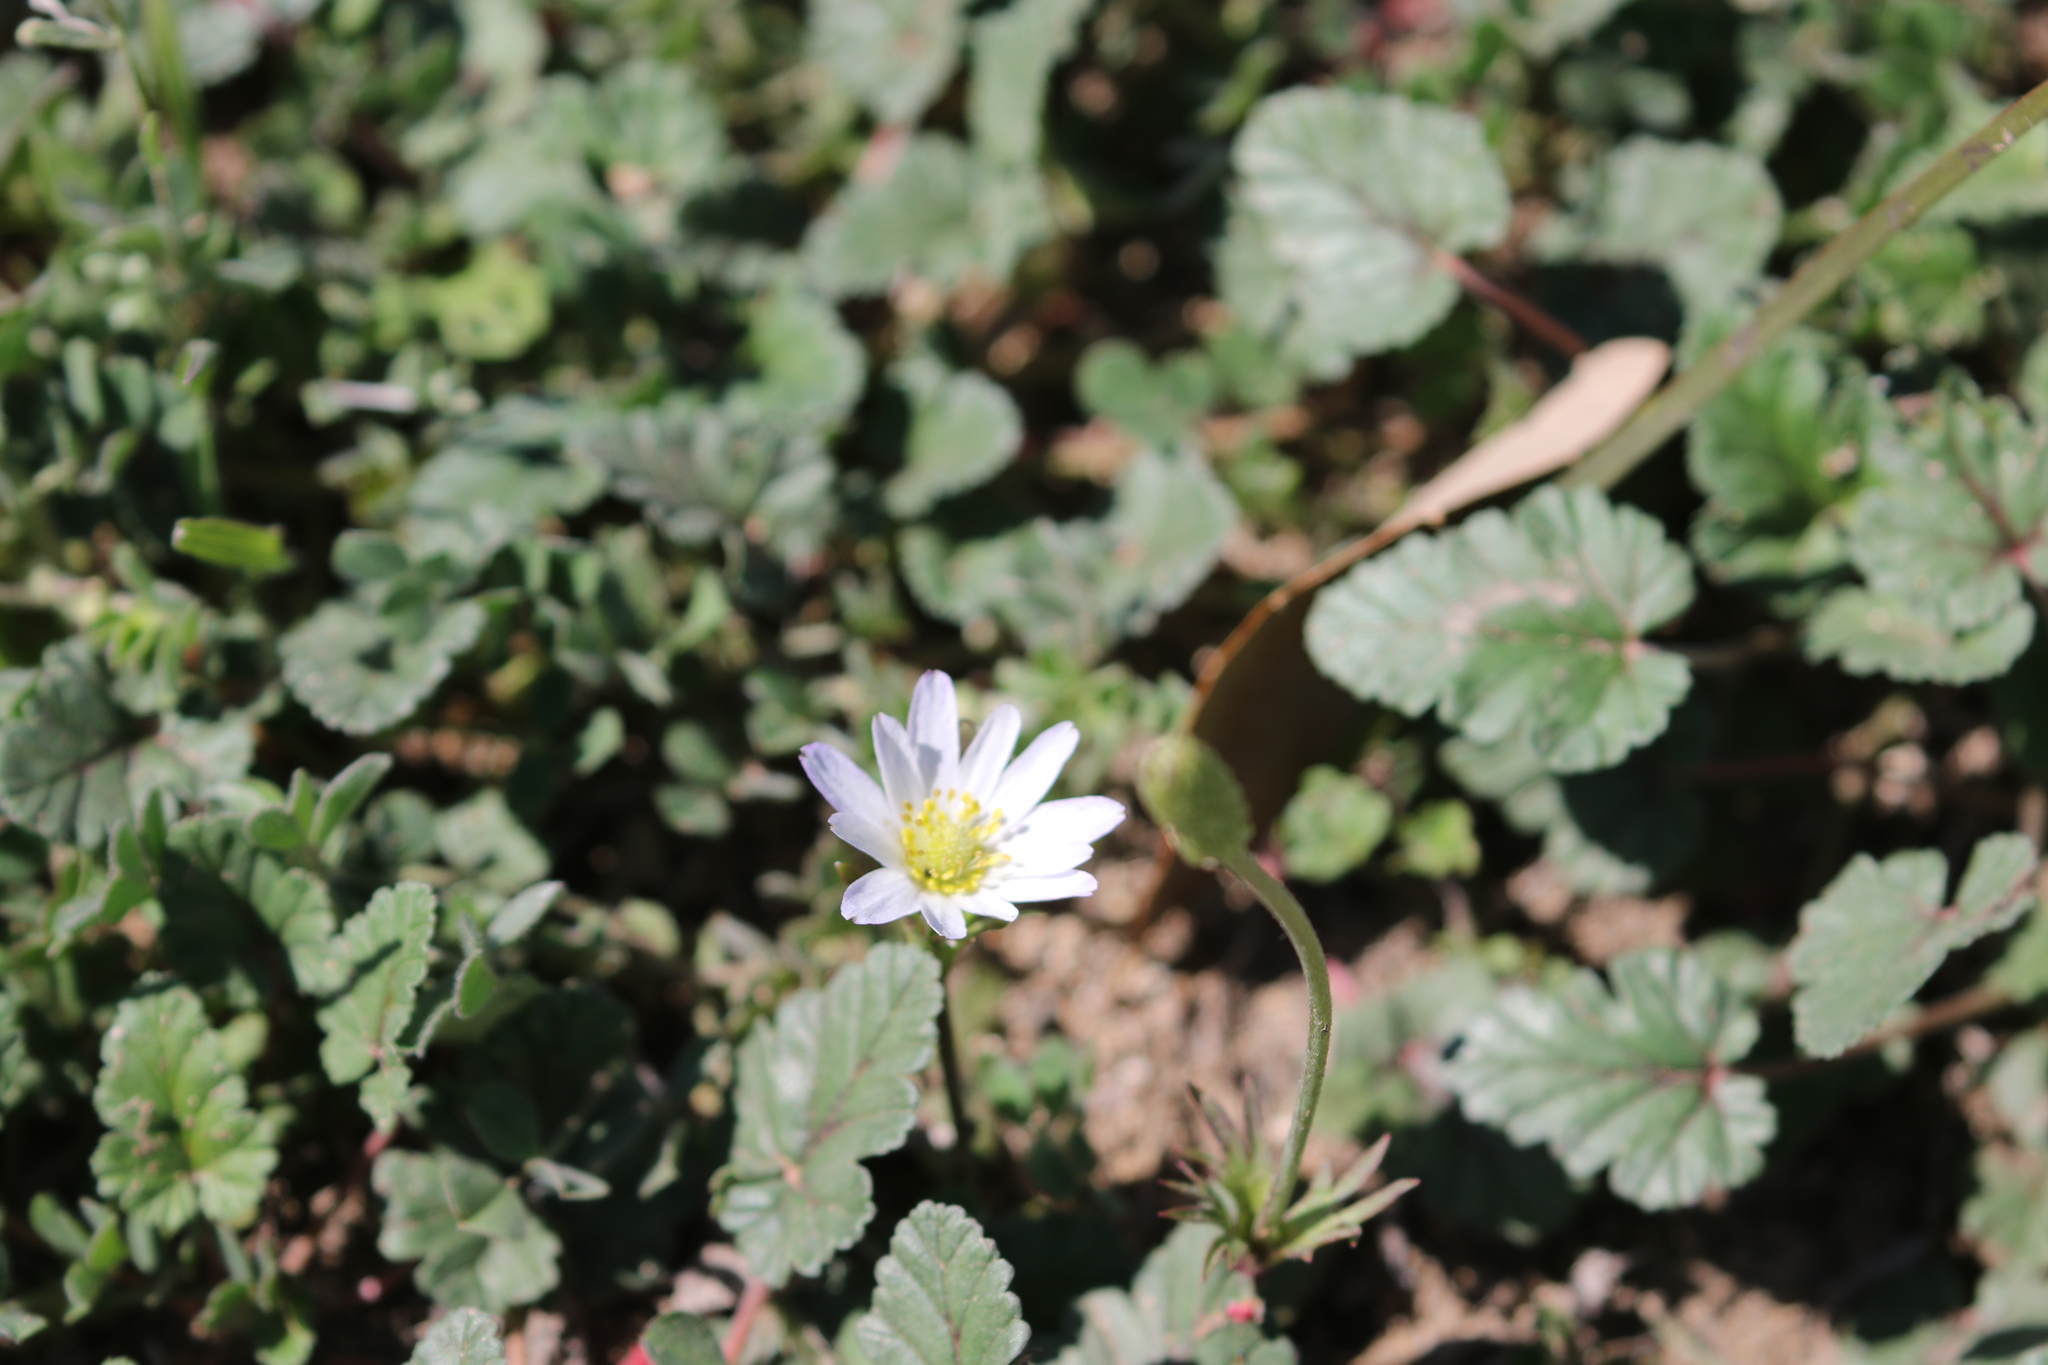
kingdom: Plantae
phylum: Tracheophyta
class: Magnoliopsida
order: Ranunculales
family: Ranunculaceae
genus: Anemone
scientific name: Anemone berlandieri
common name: Ten-petal anemone
